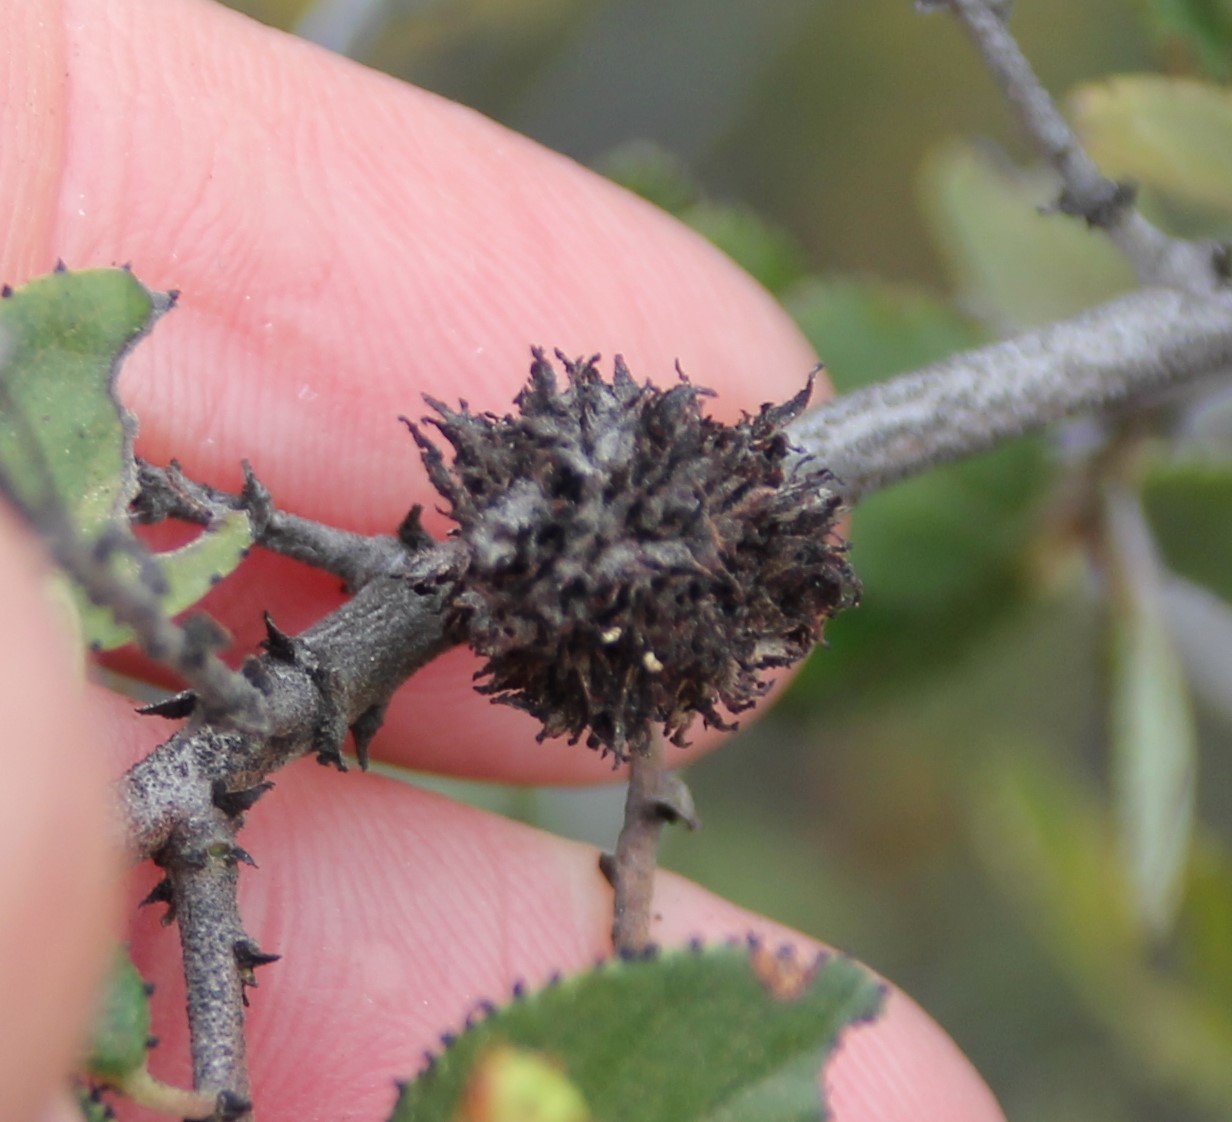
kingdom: Animalia
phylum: Arthropoda
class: Insecta
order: Diptera
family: Cecidomyiidae
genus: Asphondylia
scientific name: Asphondylia ceanothi
